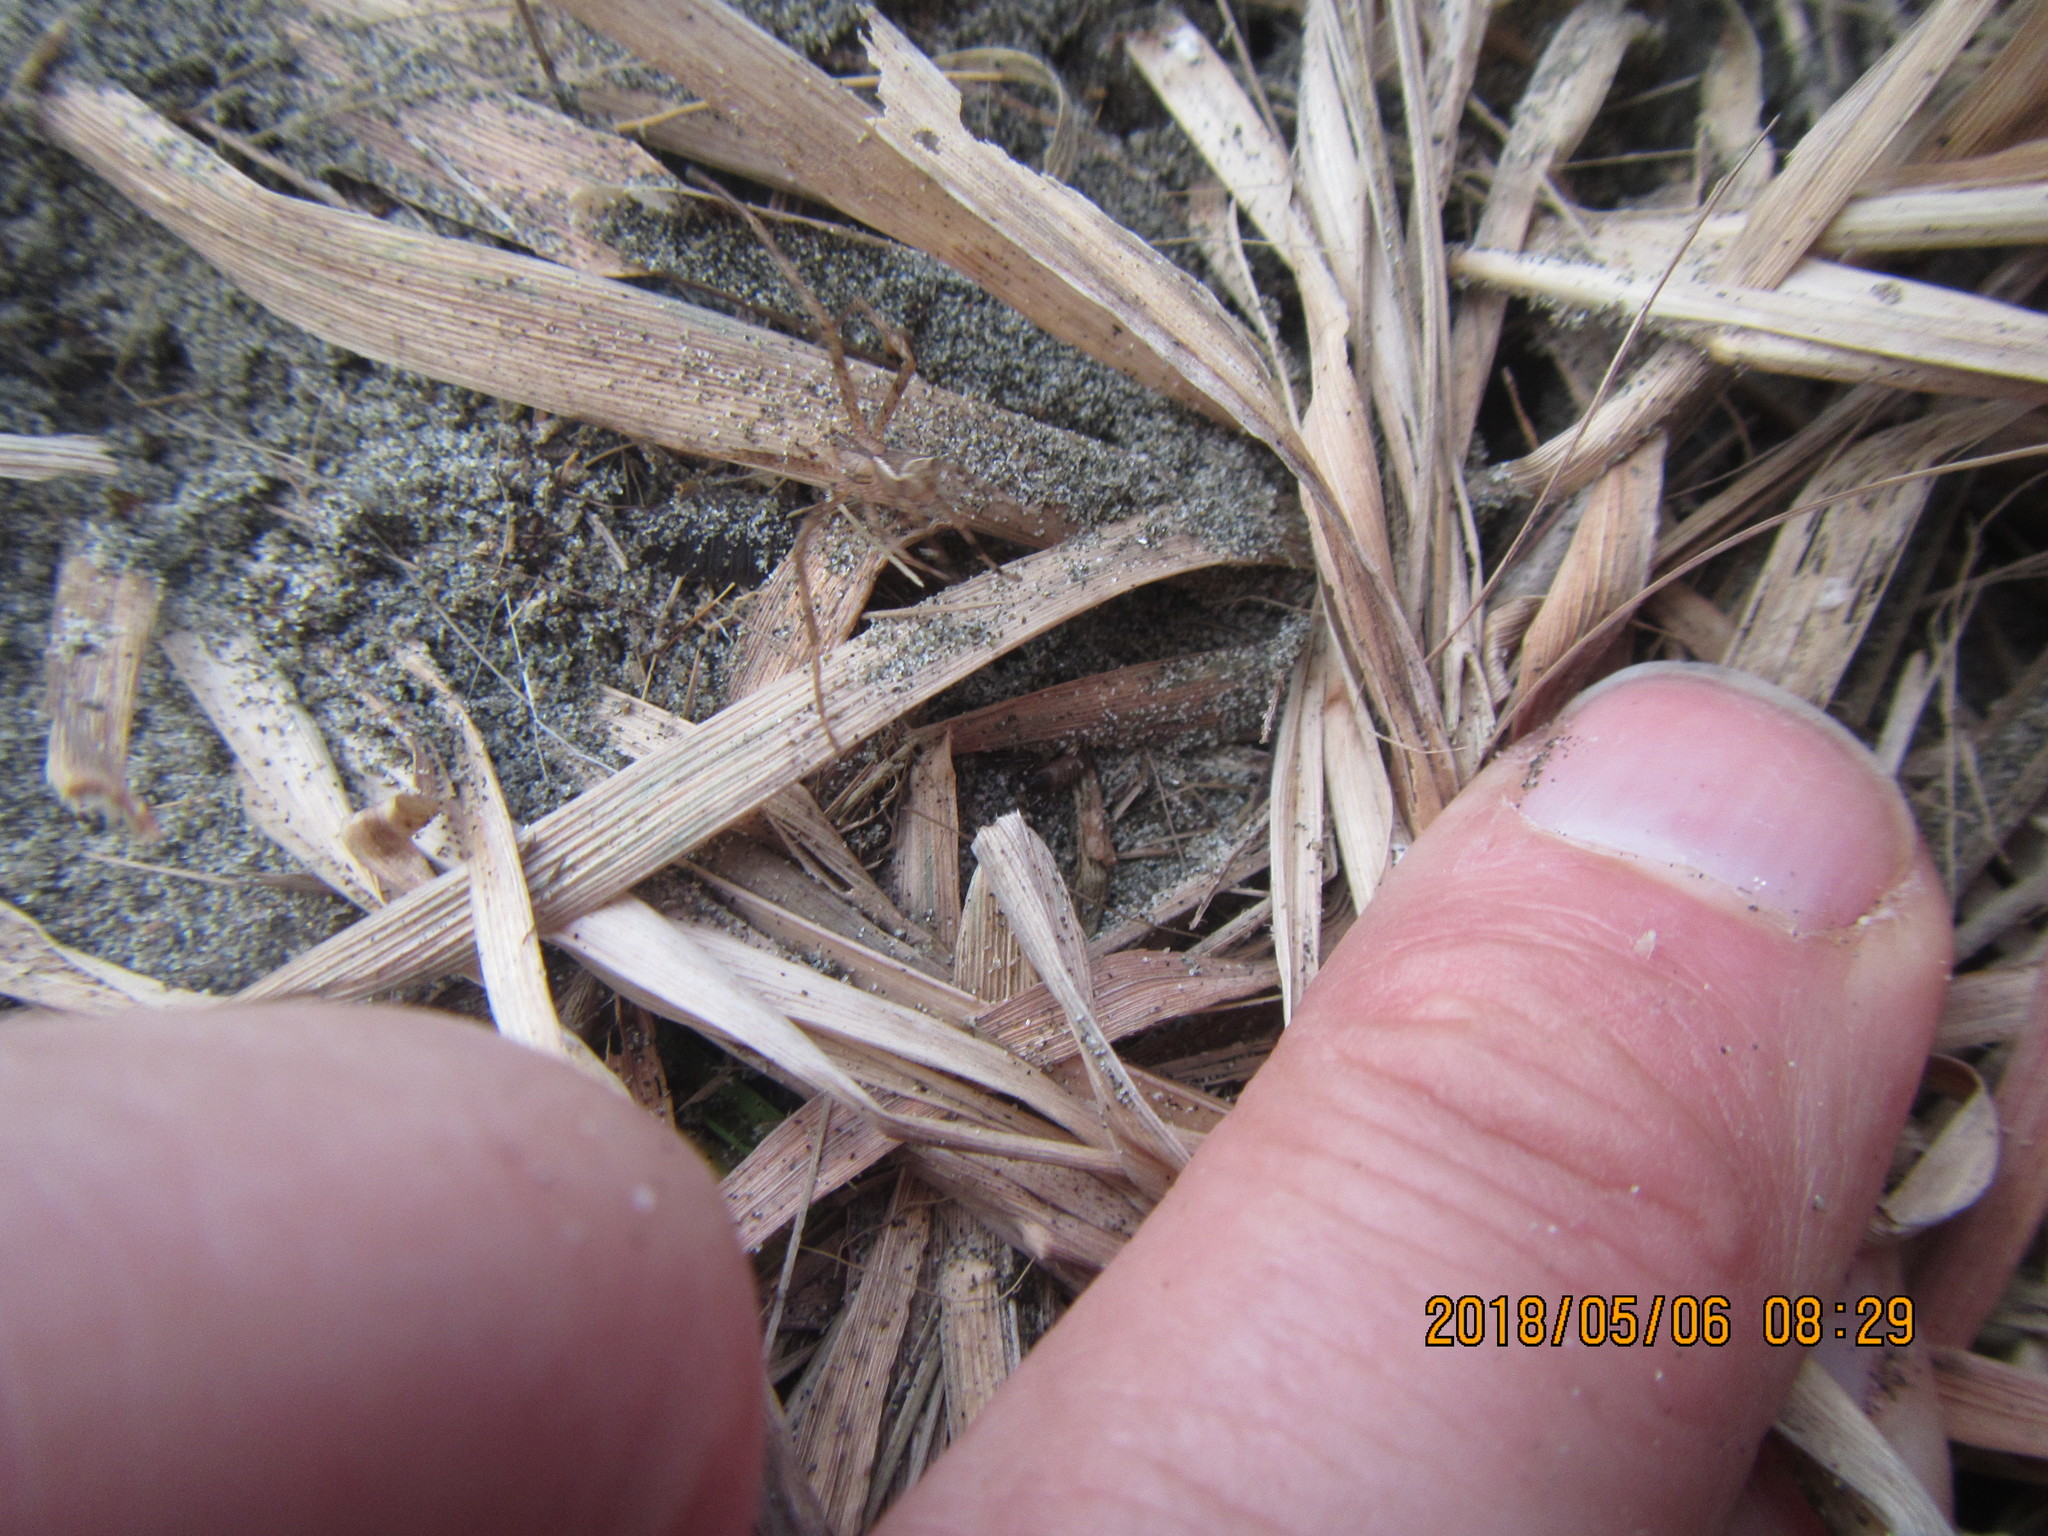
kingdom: Animalia
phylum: Arthropoda
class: Arachnida
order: Araneae
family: Thomisidae
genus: Sidymella
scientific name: Sidymella trapezia
